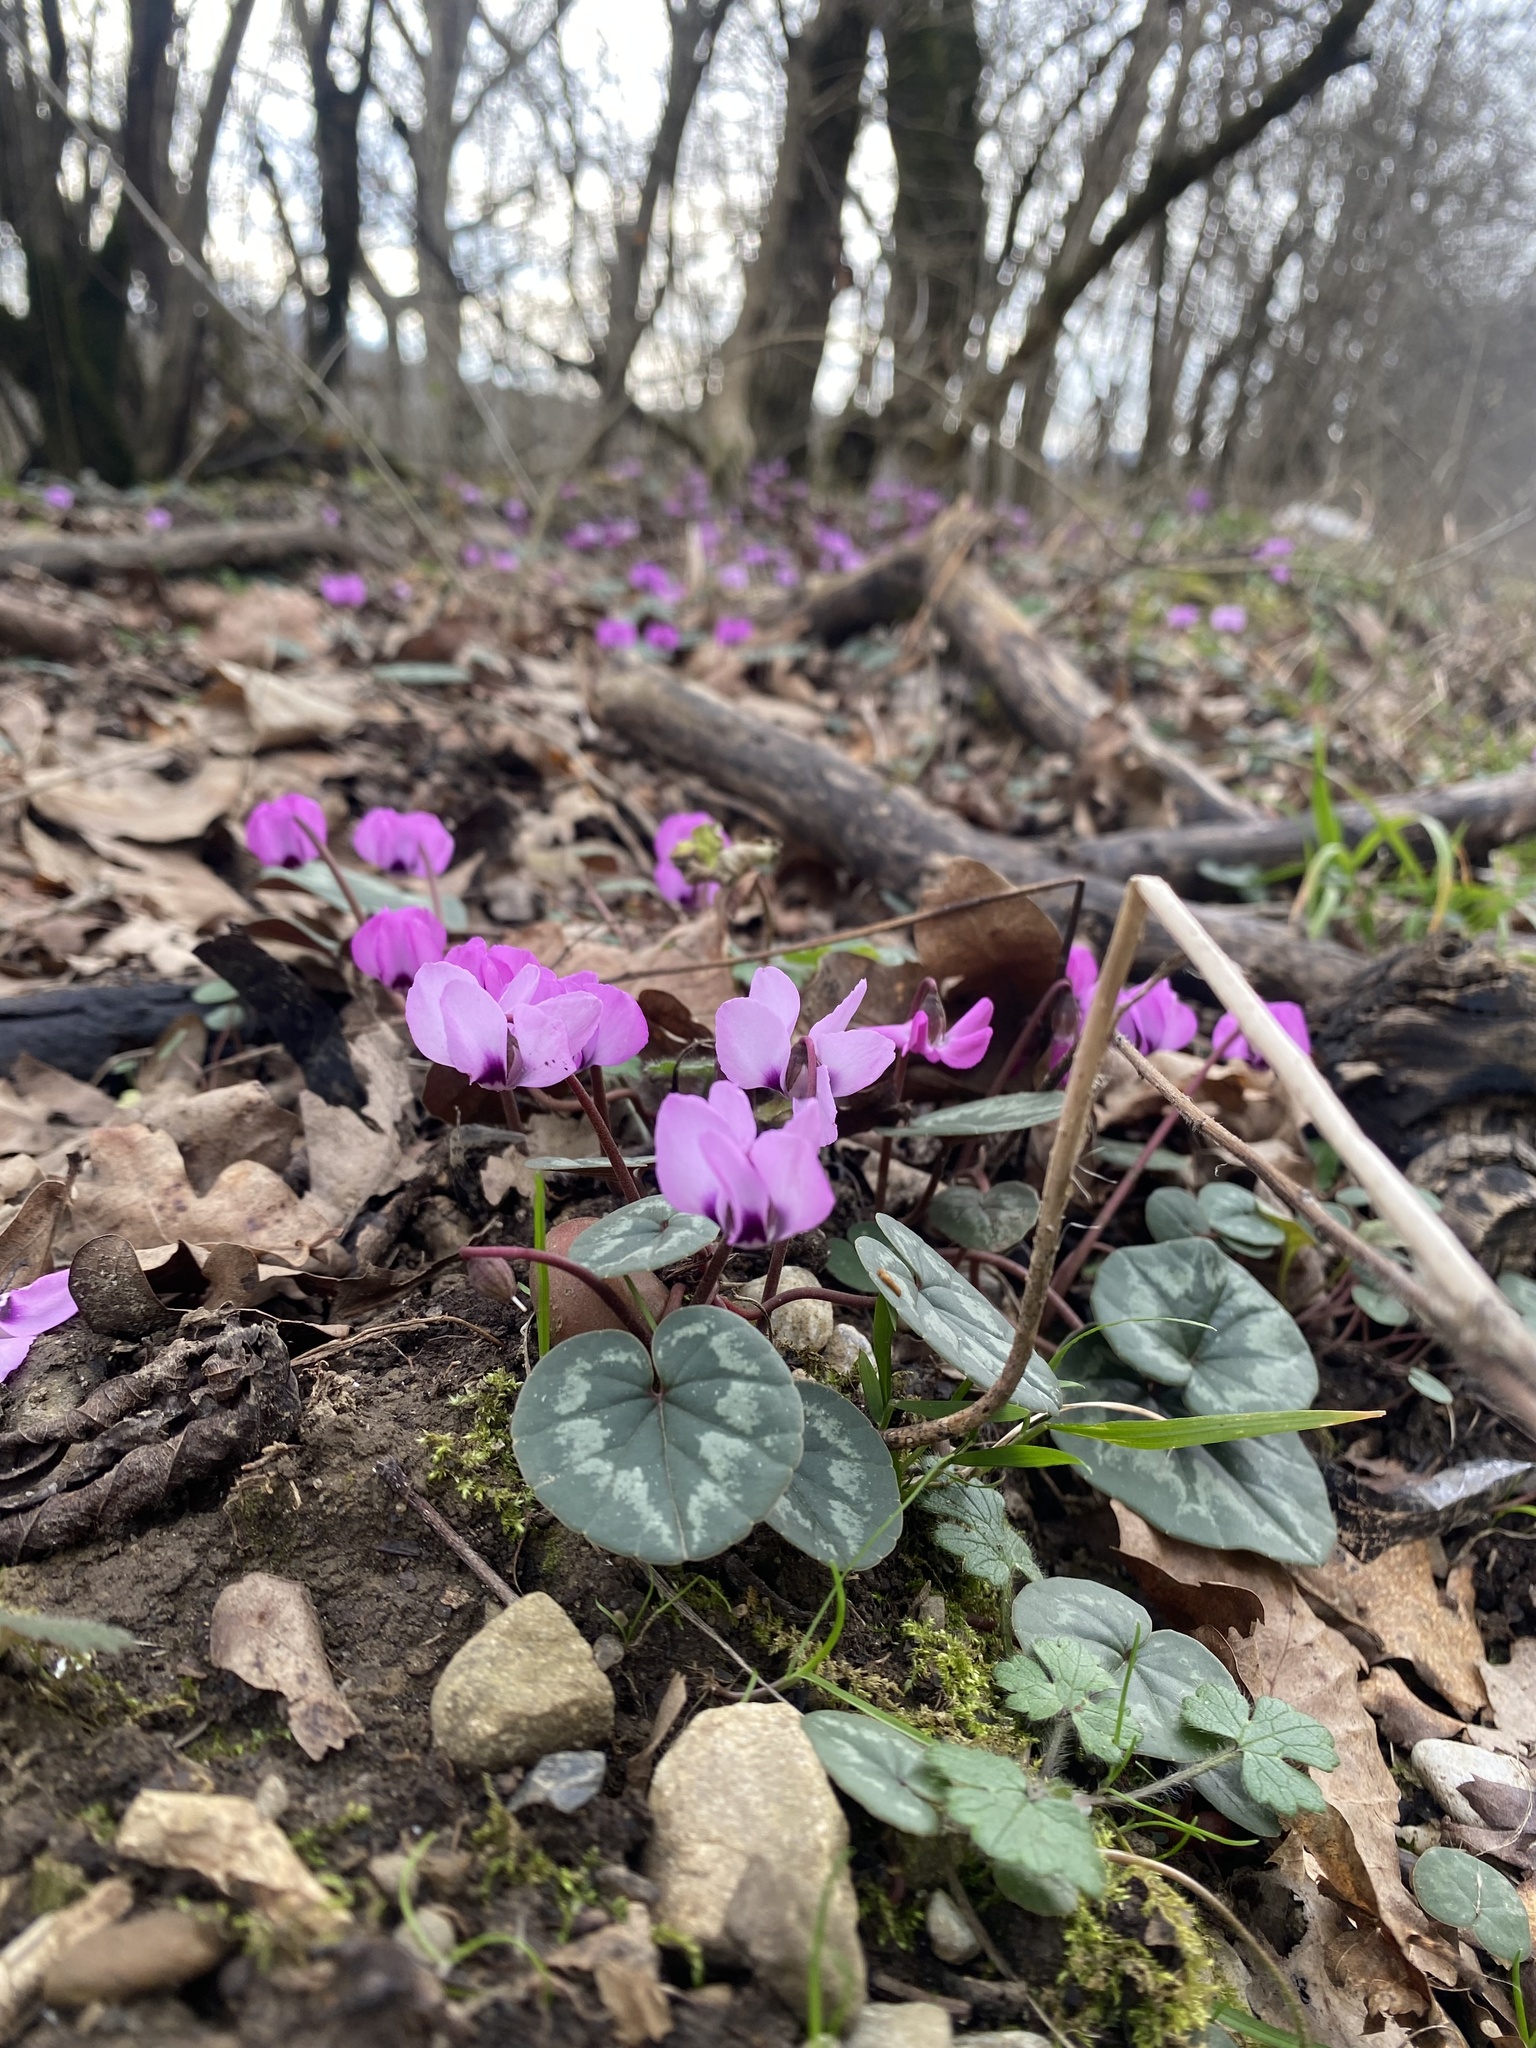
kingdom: Plantae
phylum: Tracheophyta
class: Magnoliopsida
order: Ericales
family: Primulaceae
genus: Cyclamen
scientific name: Cyclamen coum
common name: Eastern sowbread
